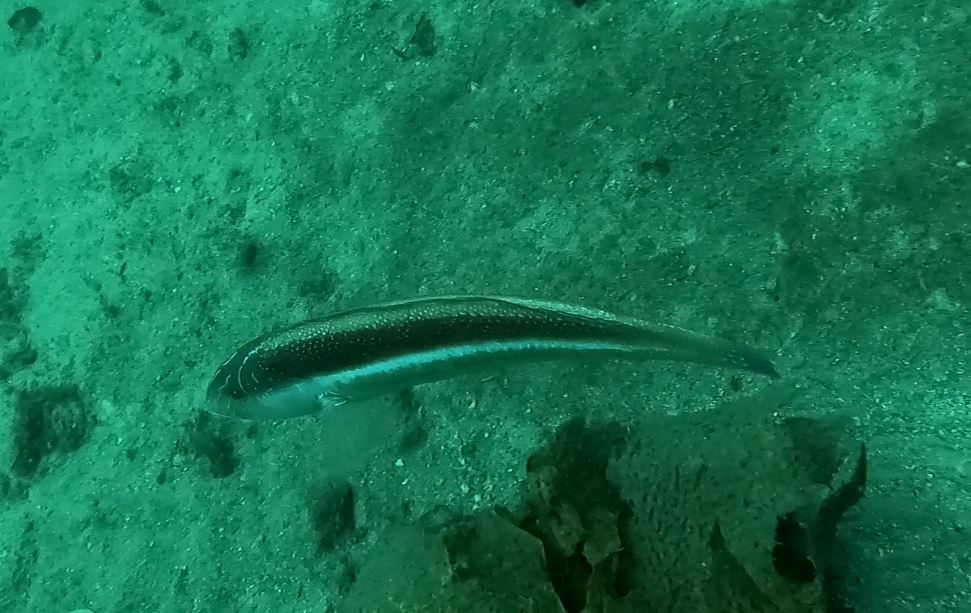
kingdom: Animalia
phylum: Chordata
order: Perciformes
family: Labridae
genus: Ophthalmolepis
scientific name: Ophthalmolepis lineolata
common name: Maori wrasse
